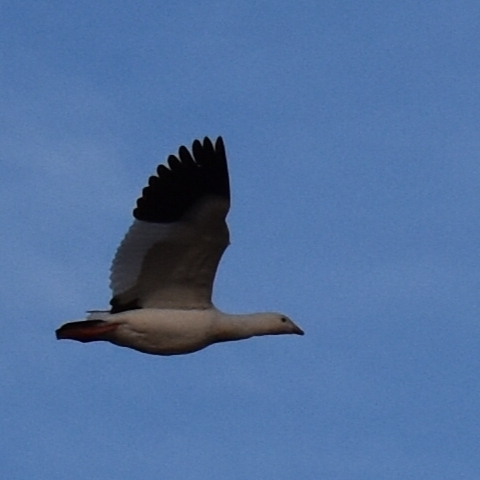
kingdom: Animalia
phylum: Chordata
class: Aves
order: Anseriformes
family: Anatidae
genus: Chloephaga
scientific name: Chloephaga melanoptera
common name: Andean goose
